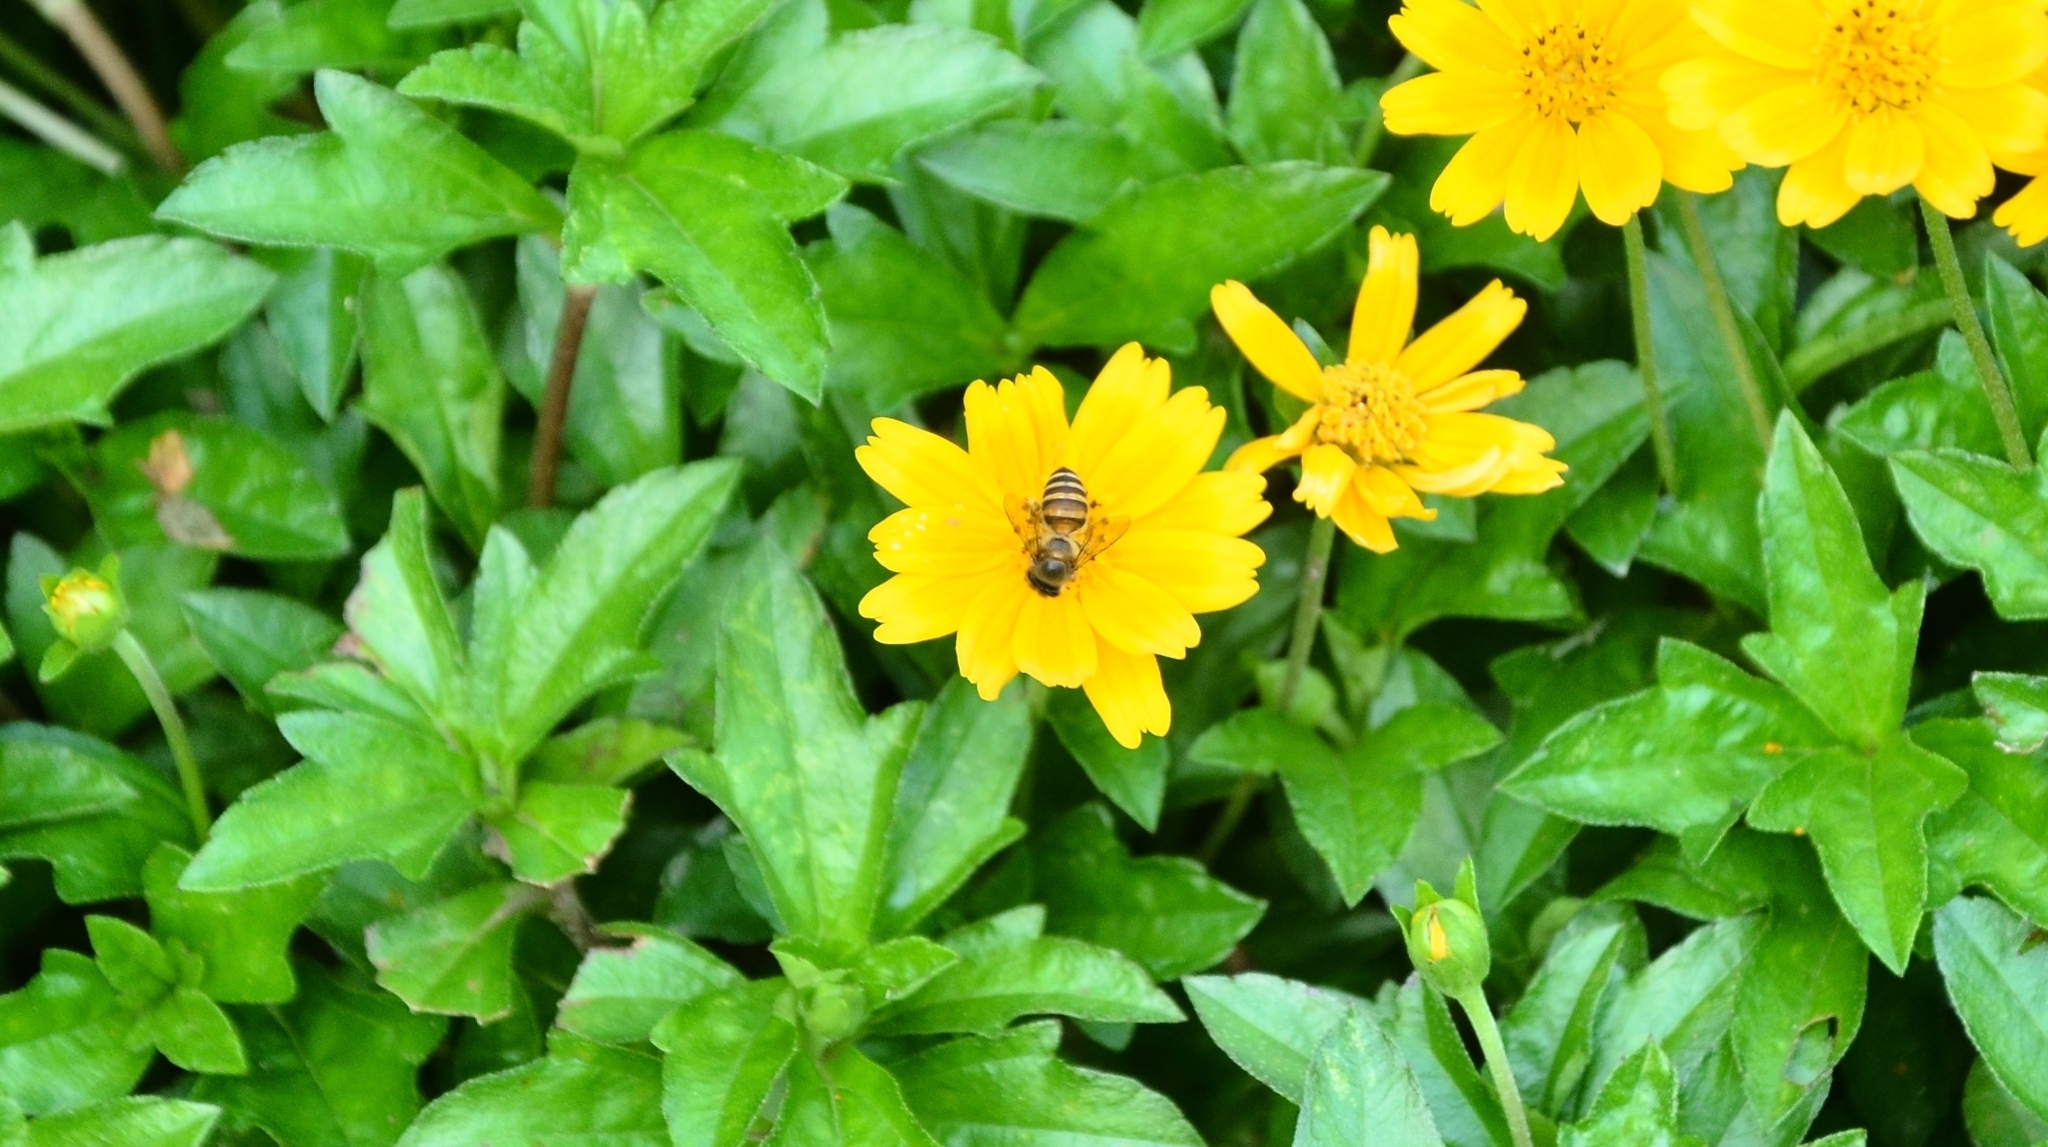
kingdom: Animalia
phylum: Arthropoda
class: Insecta
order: Hymenoptera
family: Apidae
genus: Apis
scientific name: Apis cerana
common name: Honey bee
